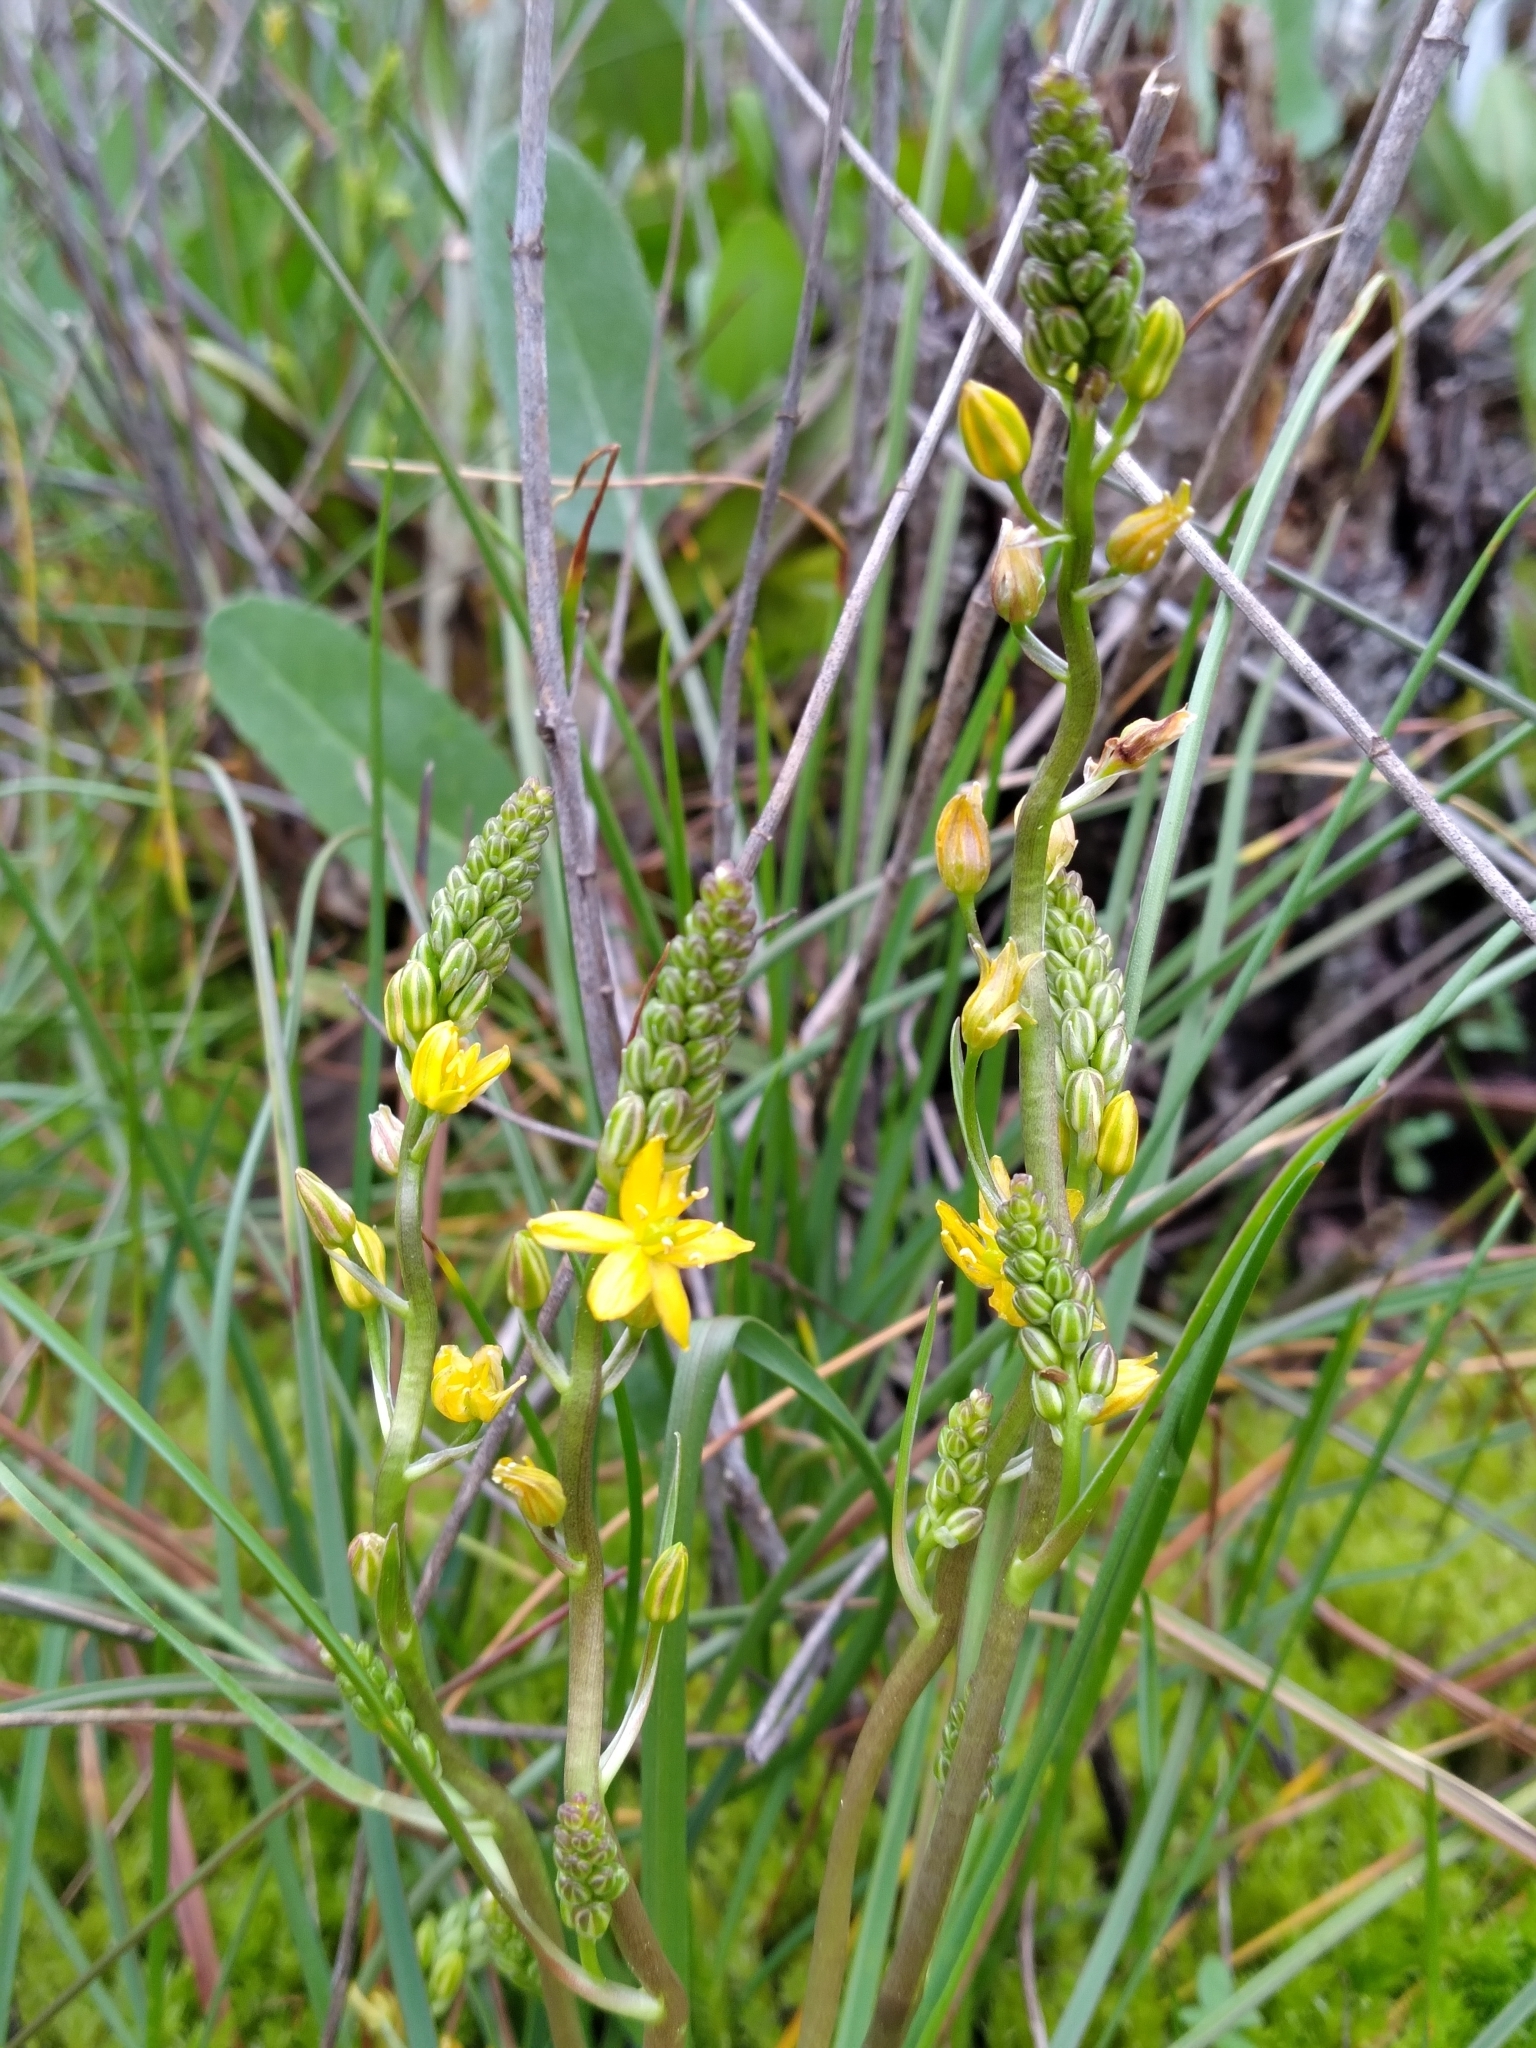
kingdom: Plantae
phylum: Tracheophyta
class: Liliopsida
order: Asparagales
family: Asparagaceae
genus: Schoenolirion
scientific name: Schoenolirion croceum
